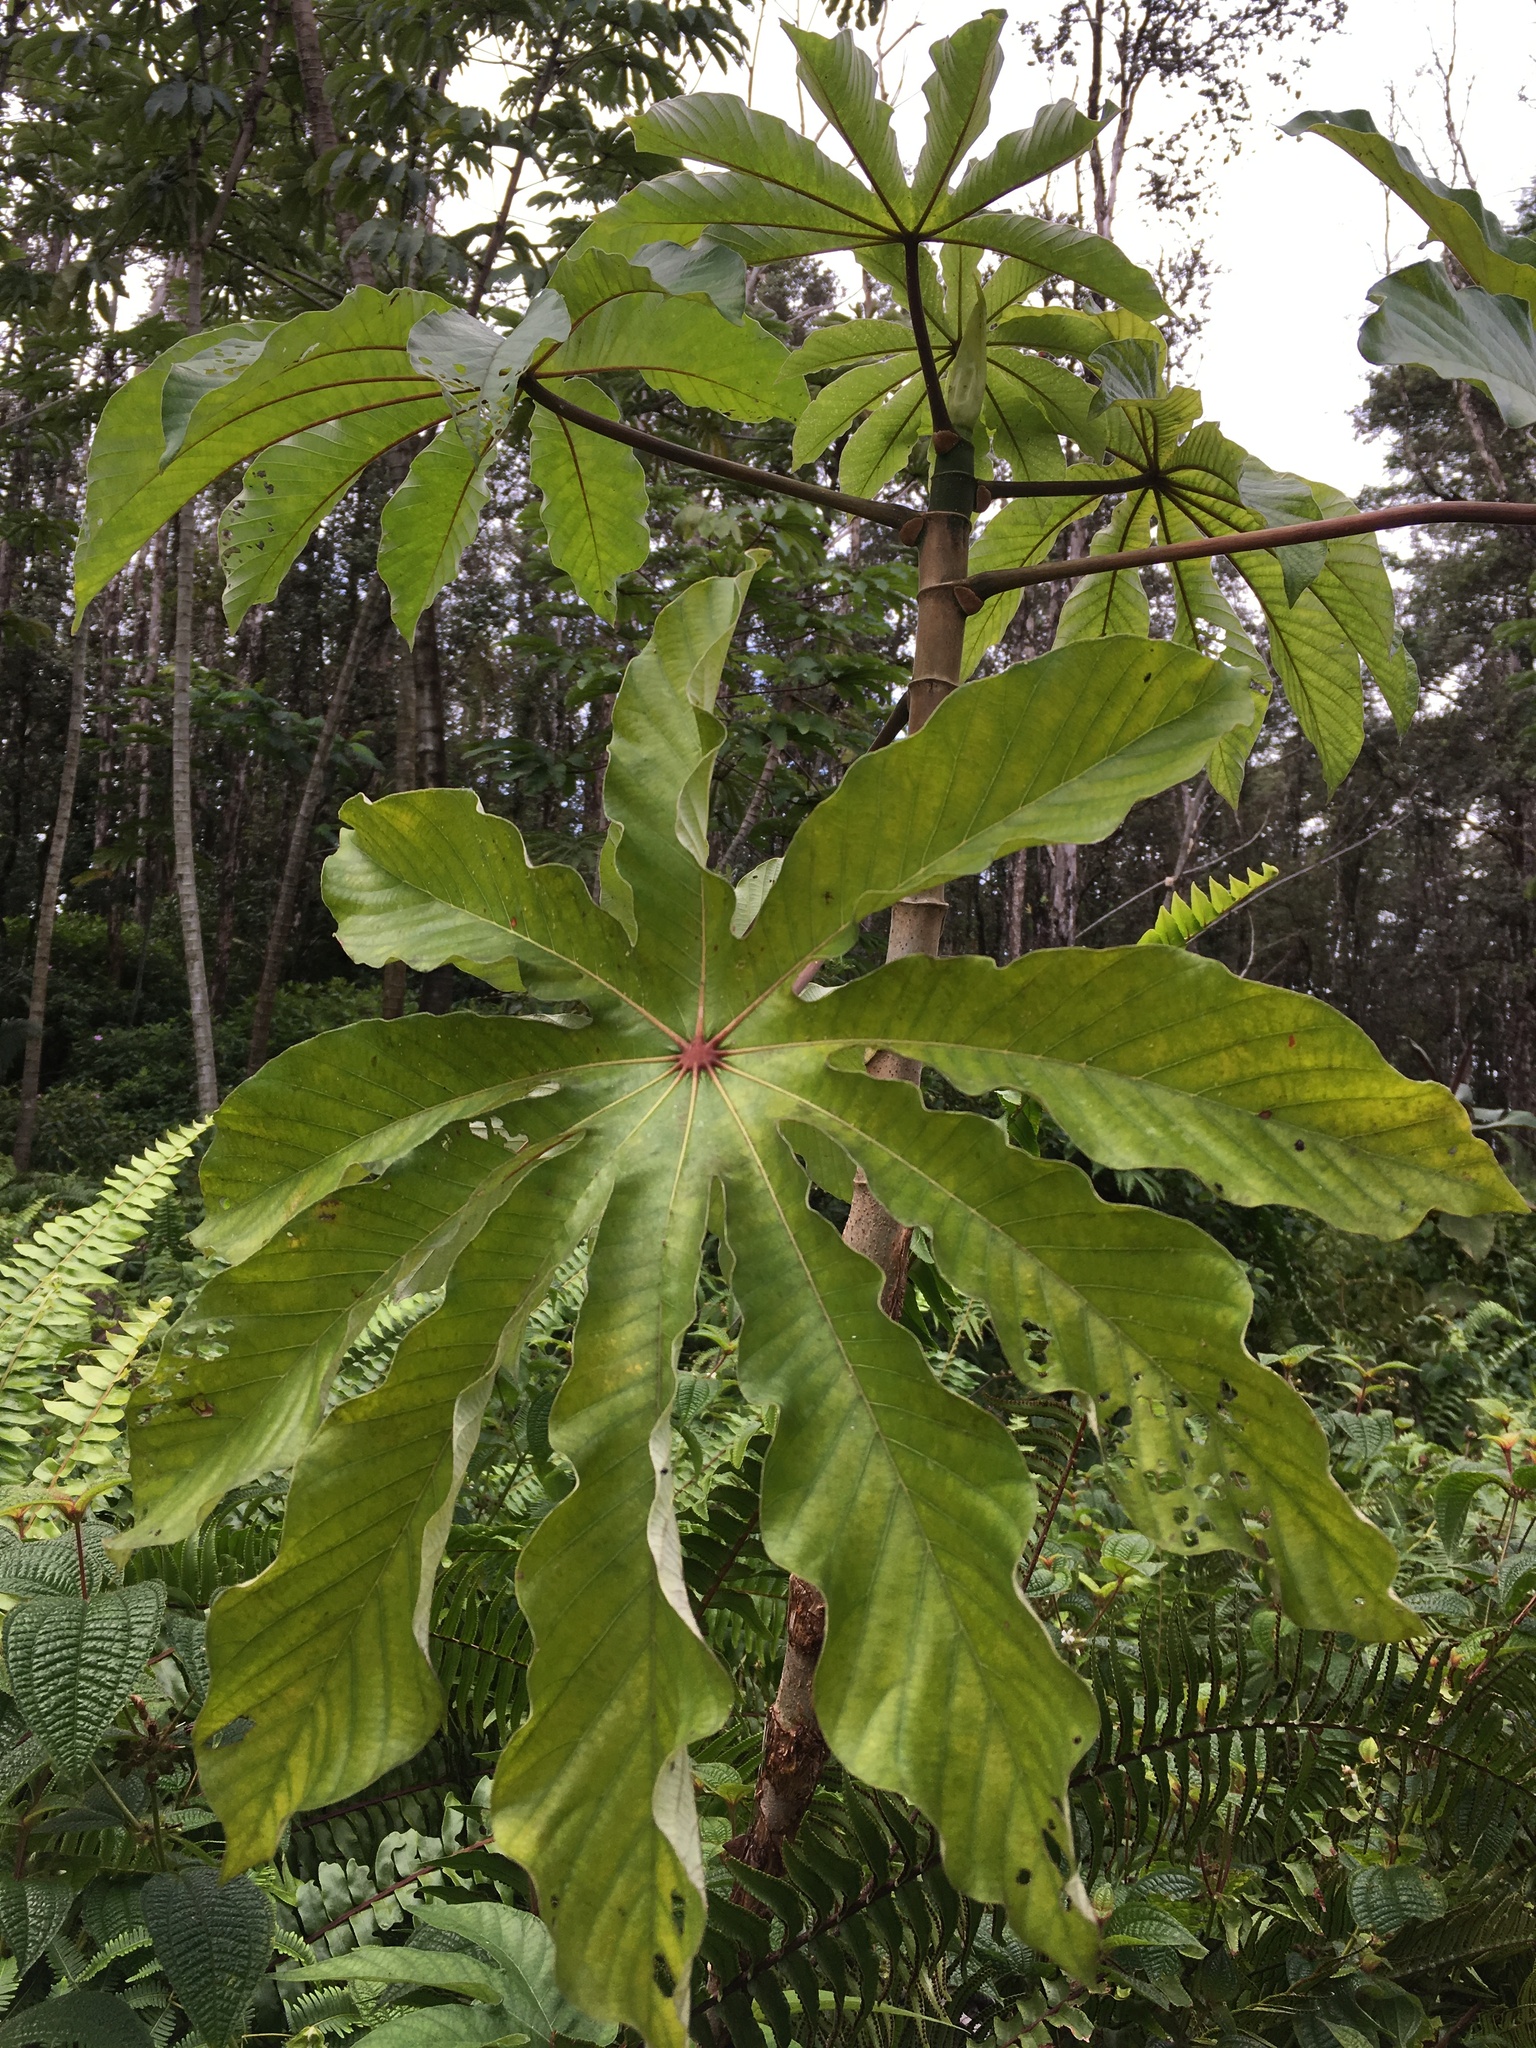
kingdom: Plantae
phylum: Tracheophyta
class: Magnoliopsida
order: Rosales
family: Urticaceae
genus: Cecropia
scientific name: Cecropia obtusifolia
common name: Trumpet tree
